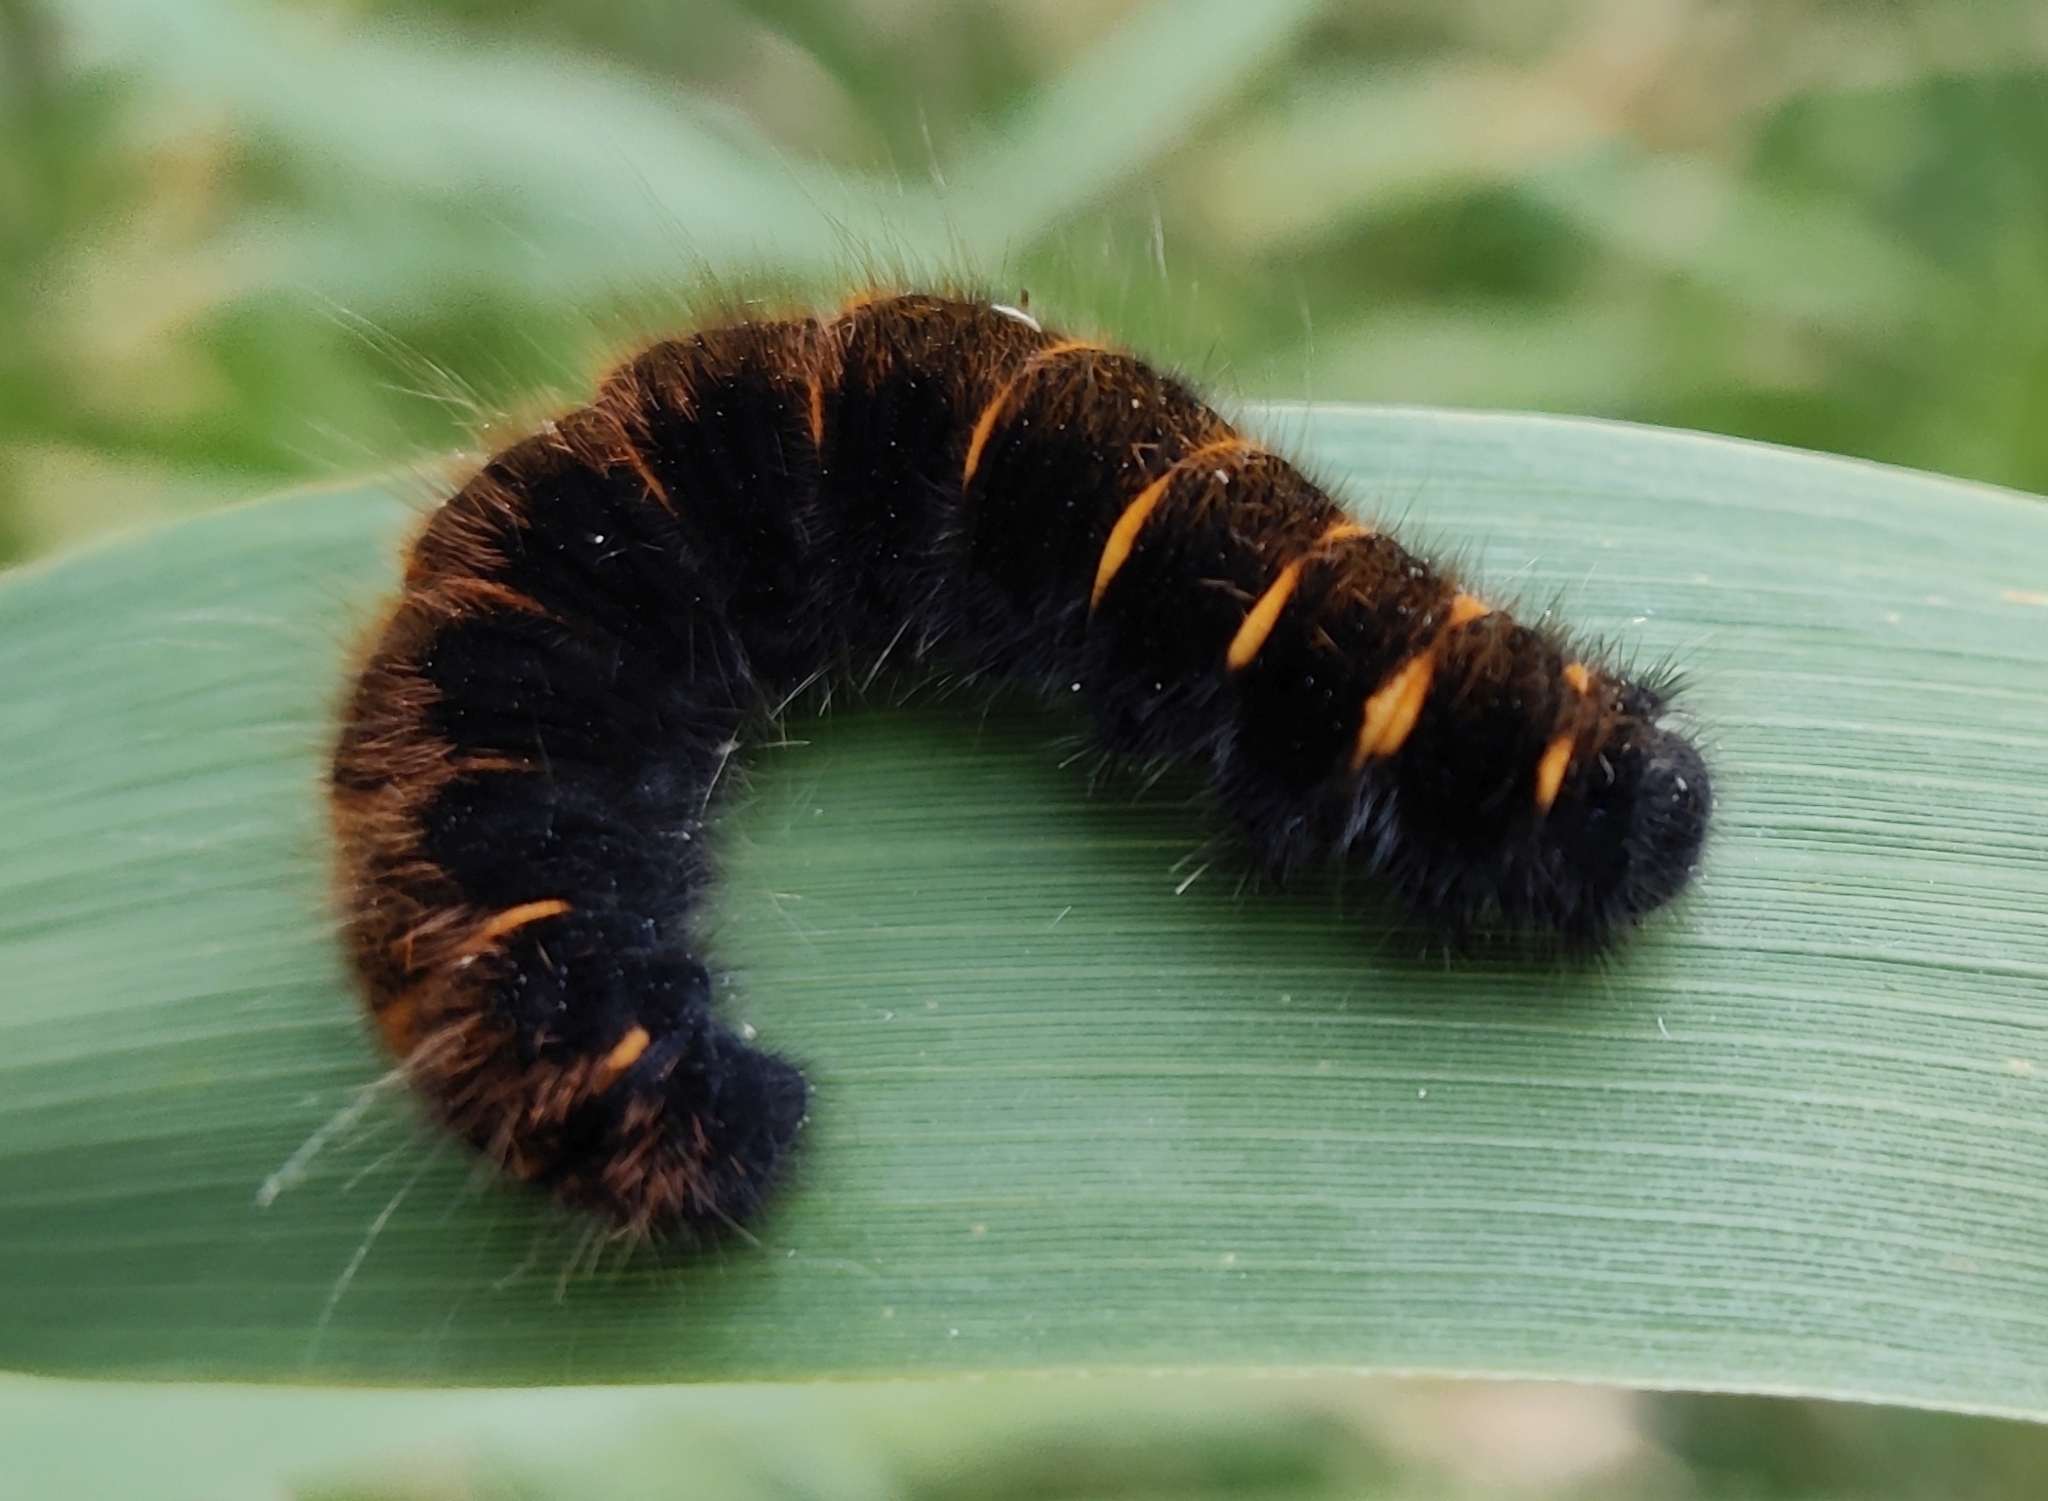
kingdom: Animalia
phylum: Arthropoda
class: Insecta
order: Lepidoptera
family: Lasiocampidae
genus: Macrothylacia
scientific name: Macrothylacia rubi
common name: Fox moth
